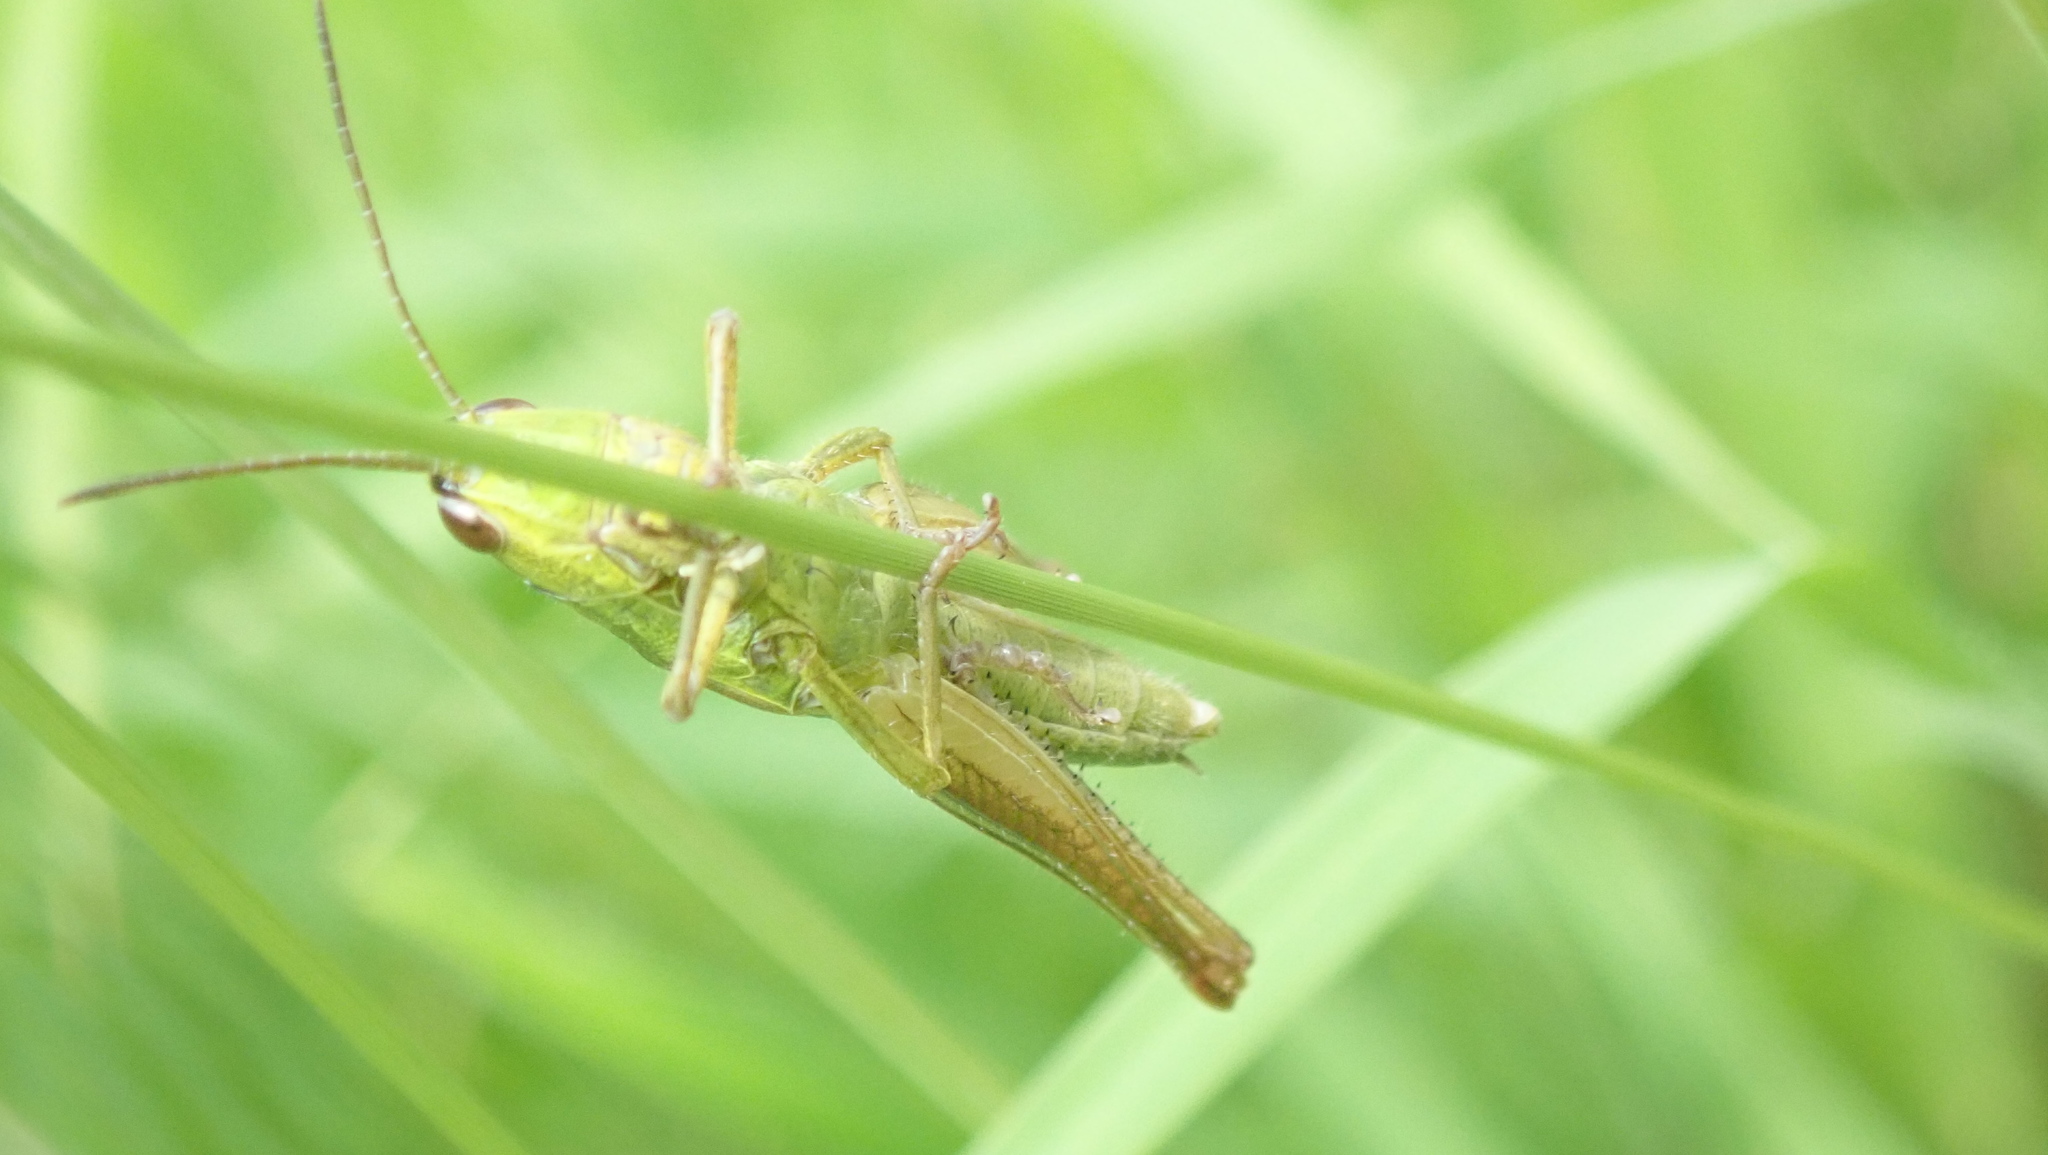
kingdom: Animalia
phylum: Arthropoda
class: Insecta
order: Orthoptera
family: Acrididae
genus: Euthystira
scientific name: Euthystira brachyptera
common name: Small gold grasshopper
